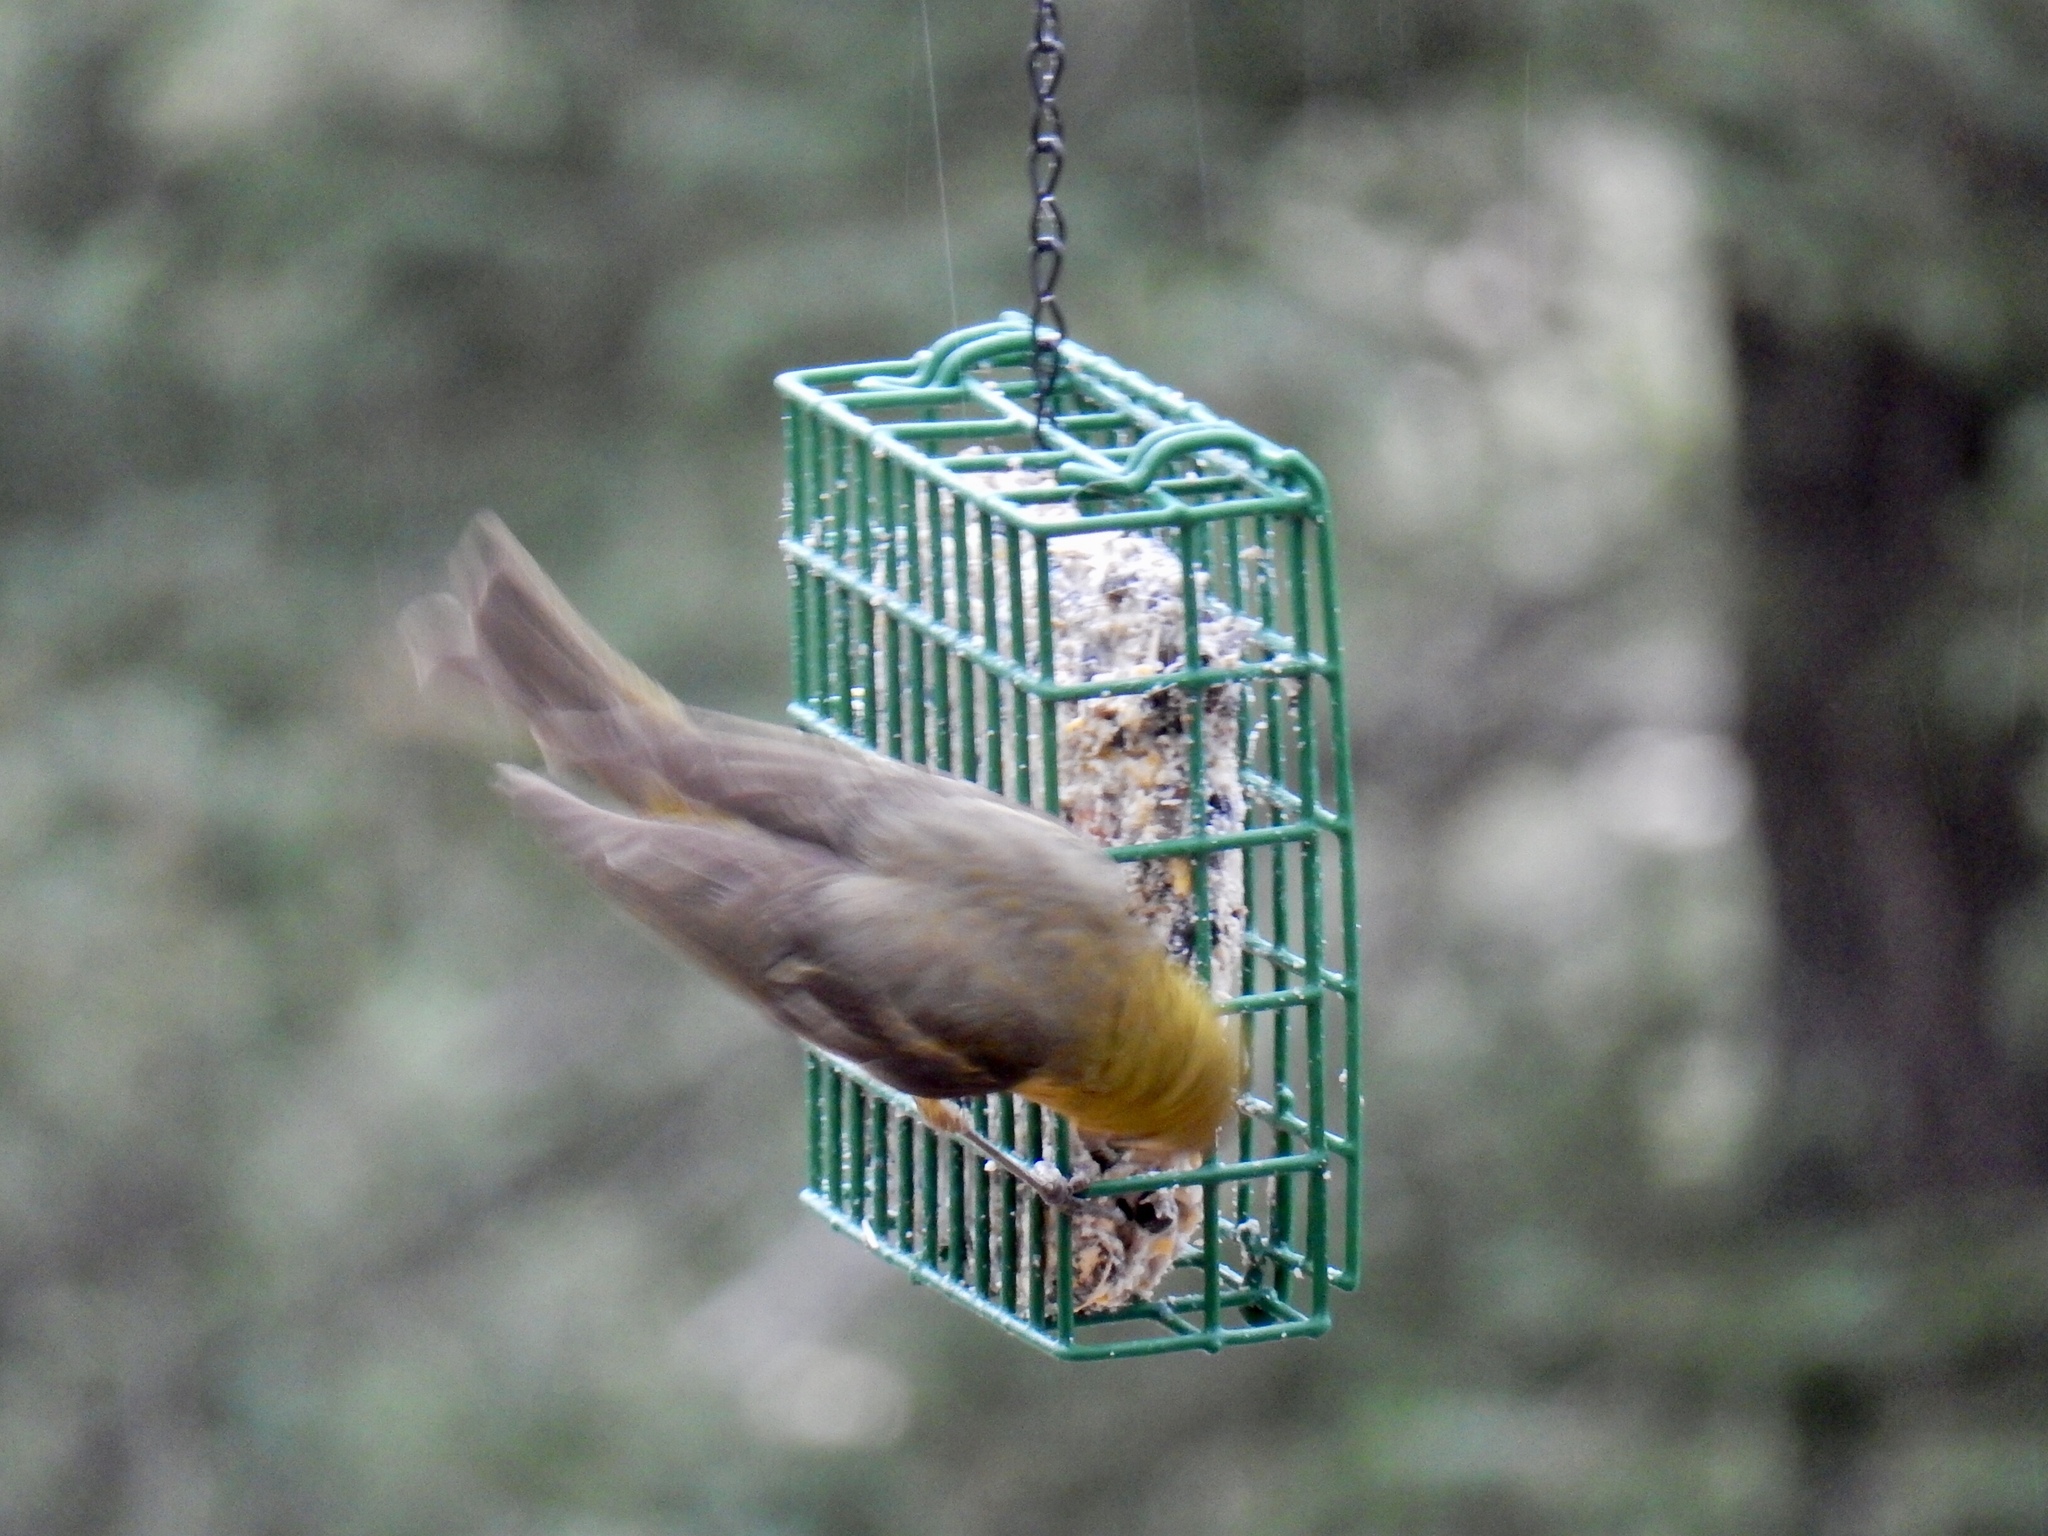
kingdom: Animalia
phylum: Chordata
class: Aves
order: Passeriformes
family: Cardinalidae
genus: Piranga
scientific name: Piranga ludoviciana
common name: Western tanager
